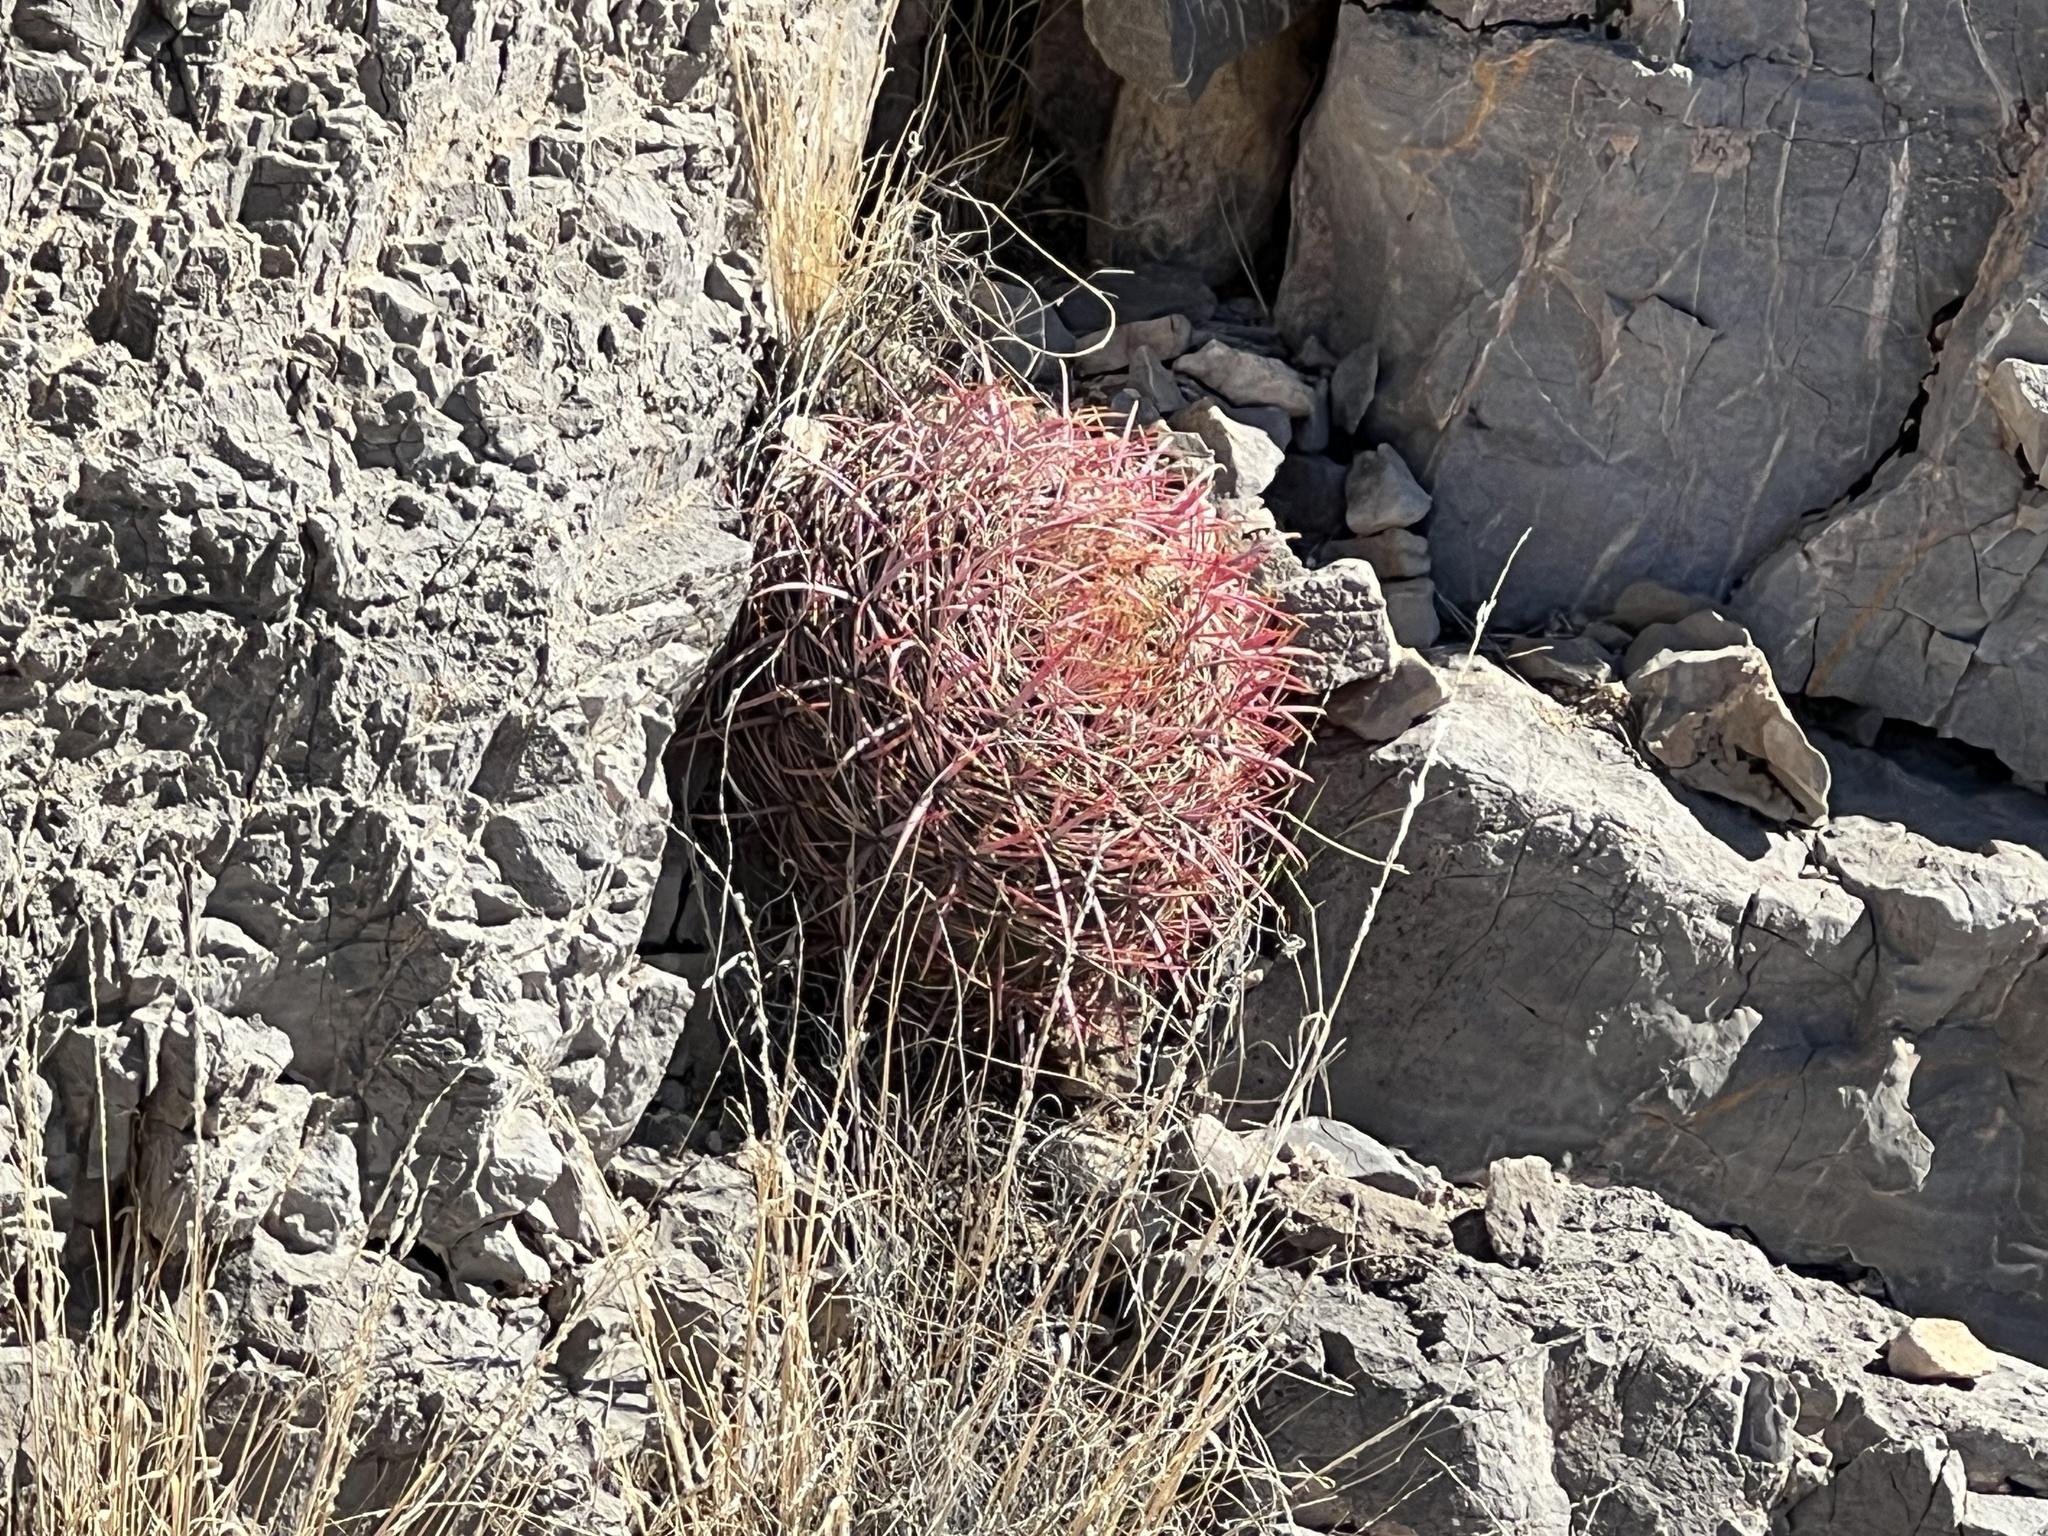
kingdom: Plantae
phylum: Tracheophyta
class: Magnoliopsida
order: Caryophyllales
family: Cactaceae
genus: Ferocactus
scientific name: Ferocactus cylindraceus
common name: California barrel cactus
